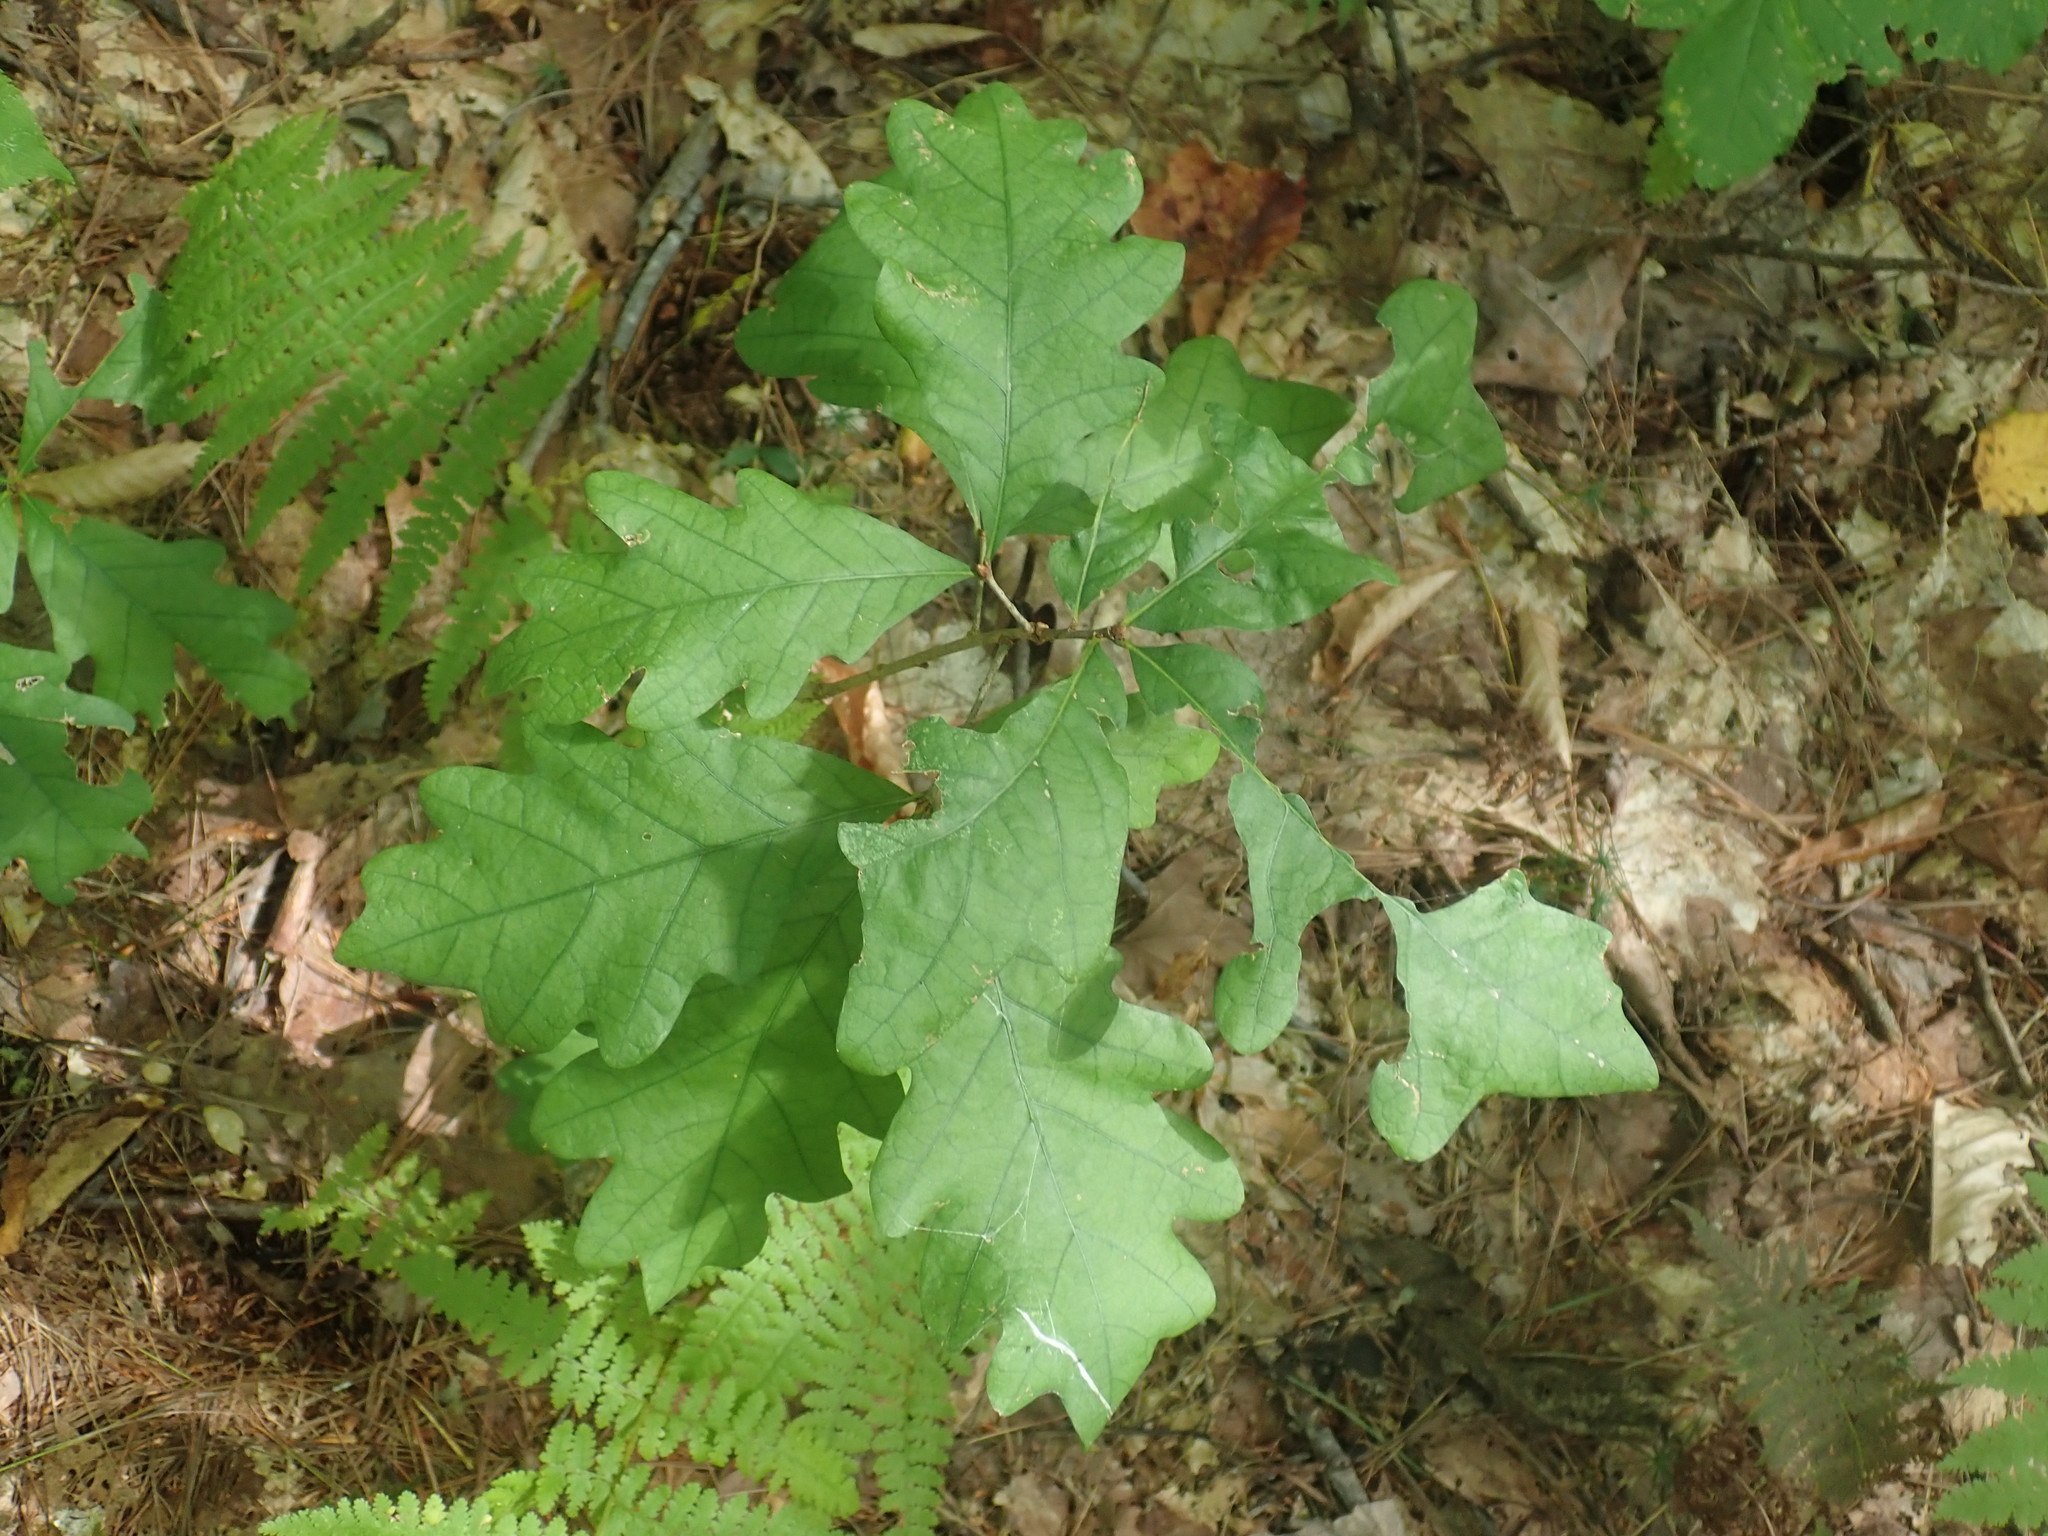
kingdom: Plantae
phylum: Tracheophyta
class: Magnoliopsida
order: Fagales
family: Fagaceae
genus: Quercus
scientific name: Quercus alba
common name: White oak
